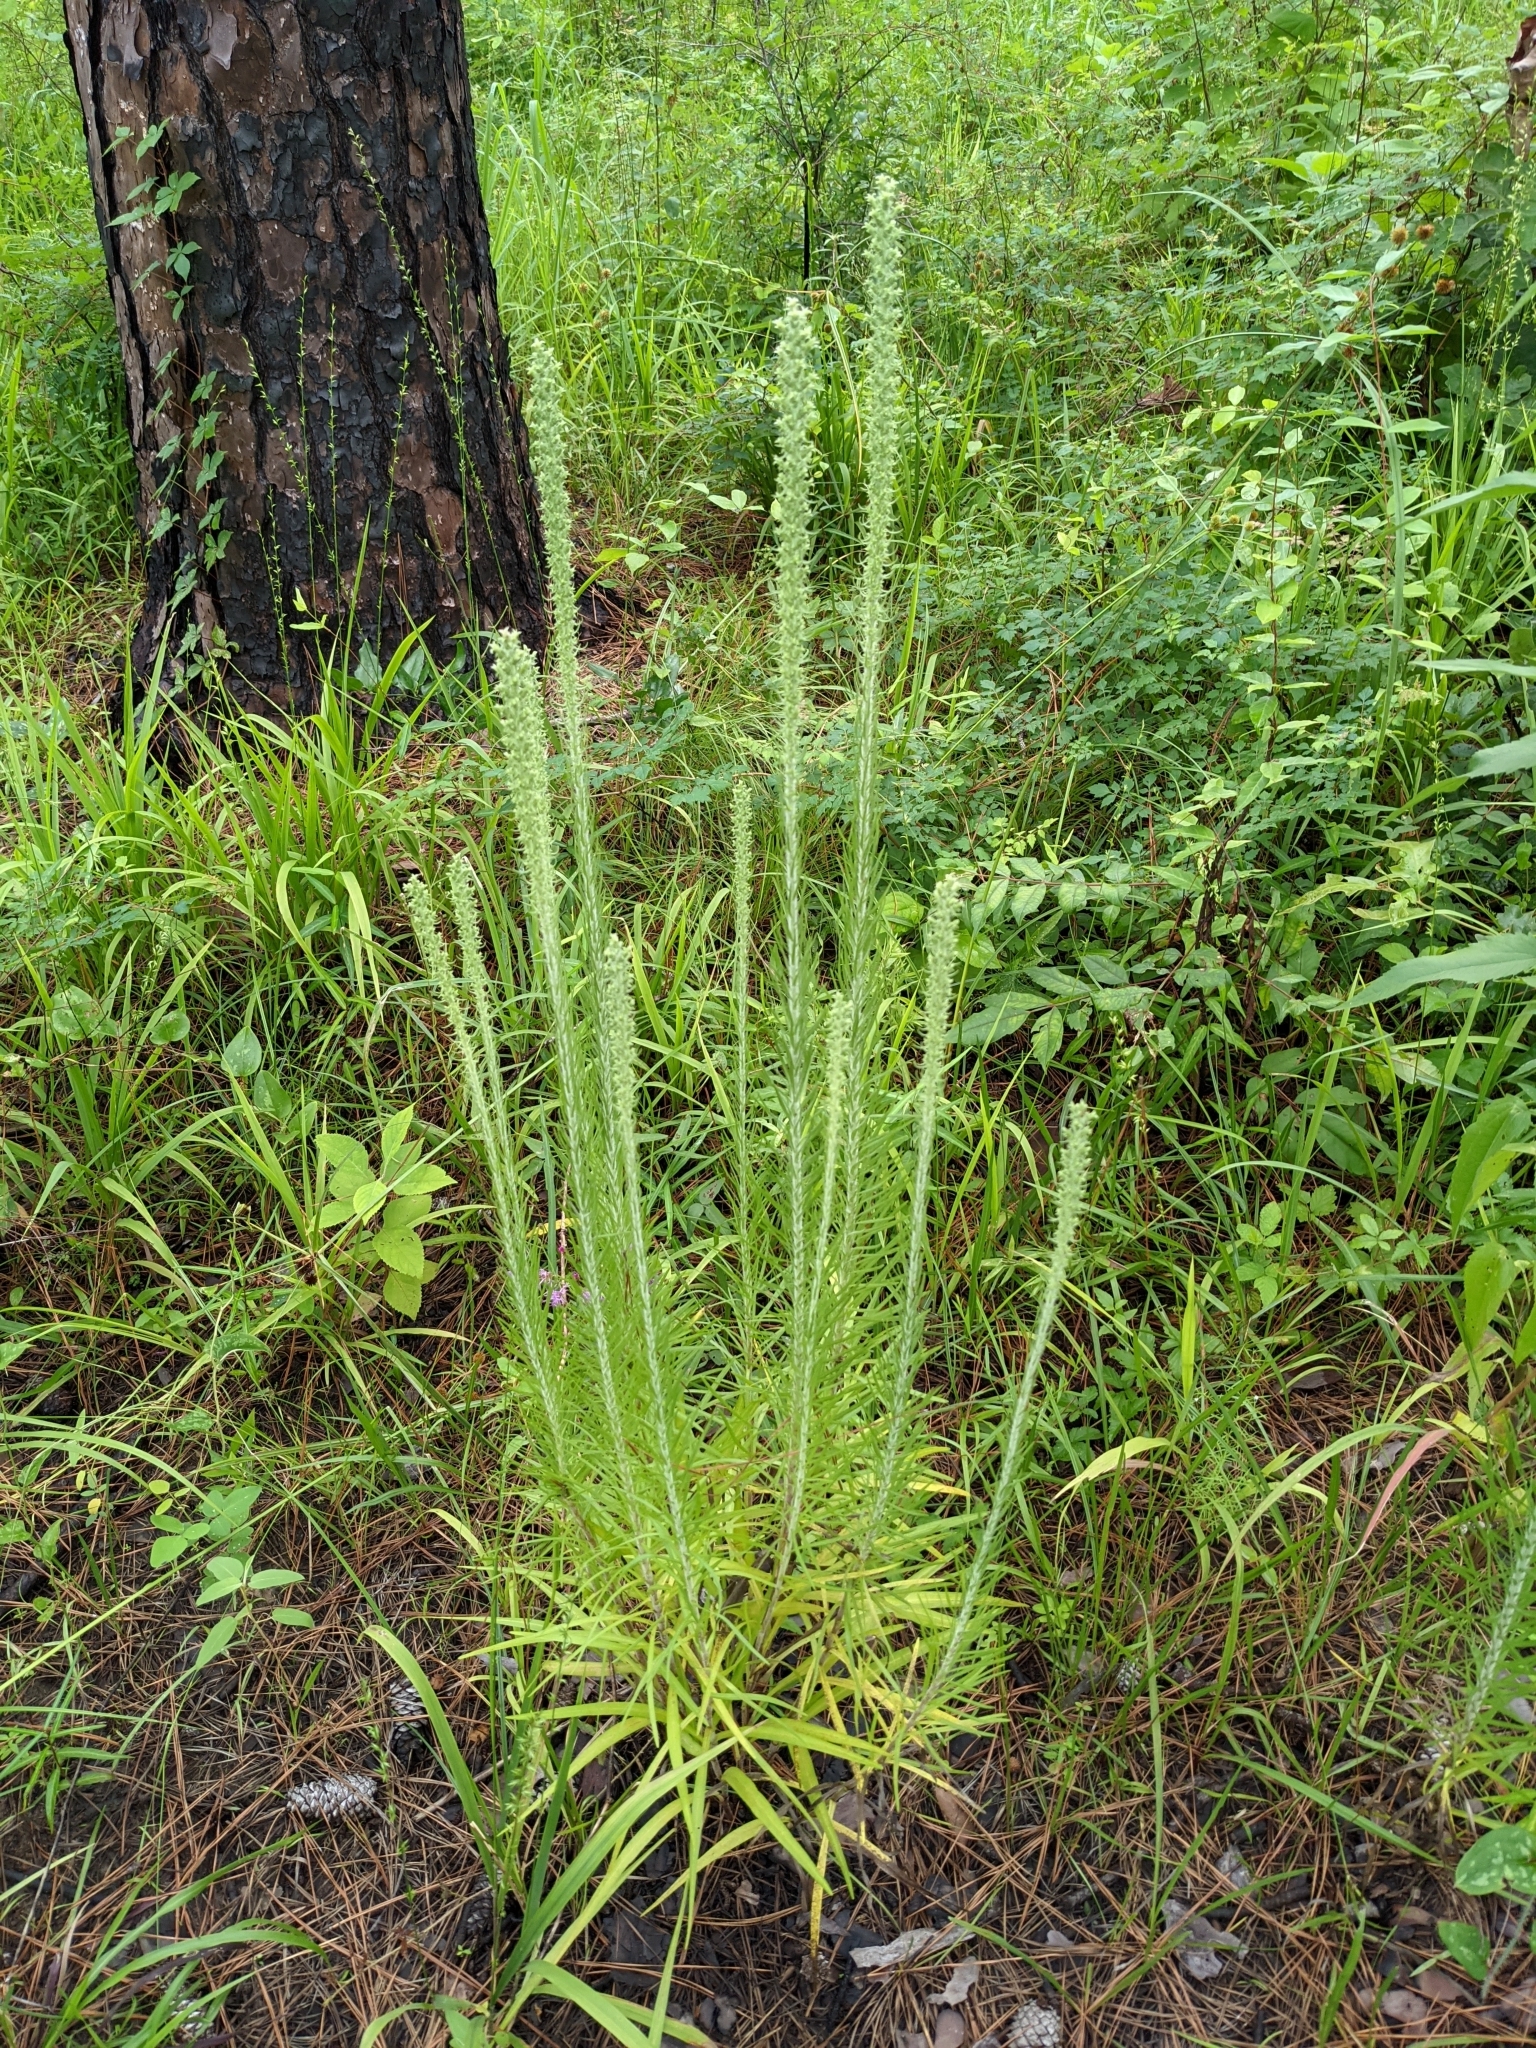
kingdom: Plantae
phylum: Tracheophyta
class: Magnoliopsida
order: Asterales
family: Asteraceae
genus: Liatris
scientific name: Liatris hesperelegans
